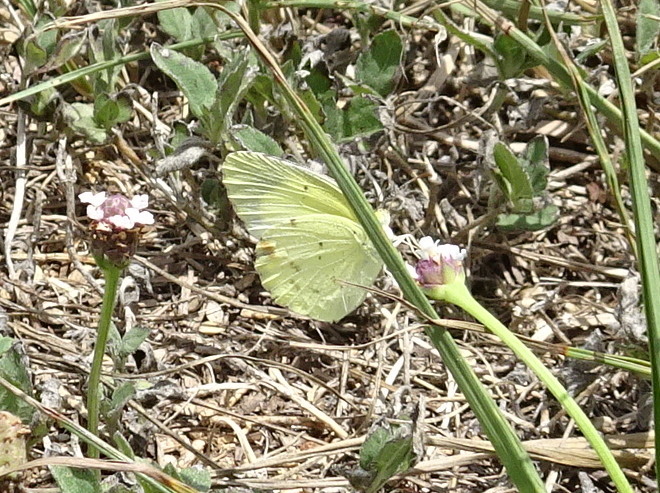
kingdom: Animalia
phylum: Arthropoda
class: Insecta
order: Lepidoptera
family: Pieridae
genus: Pyrisitia
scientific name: Pyrisitia lisa
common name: Little yellow
